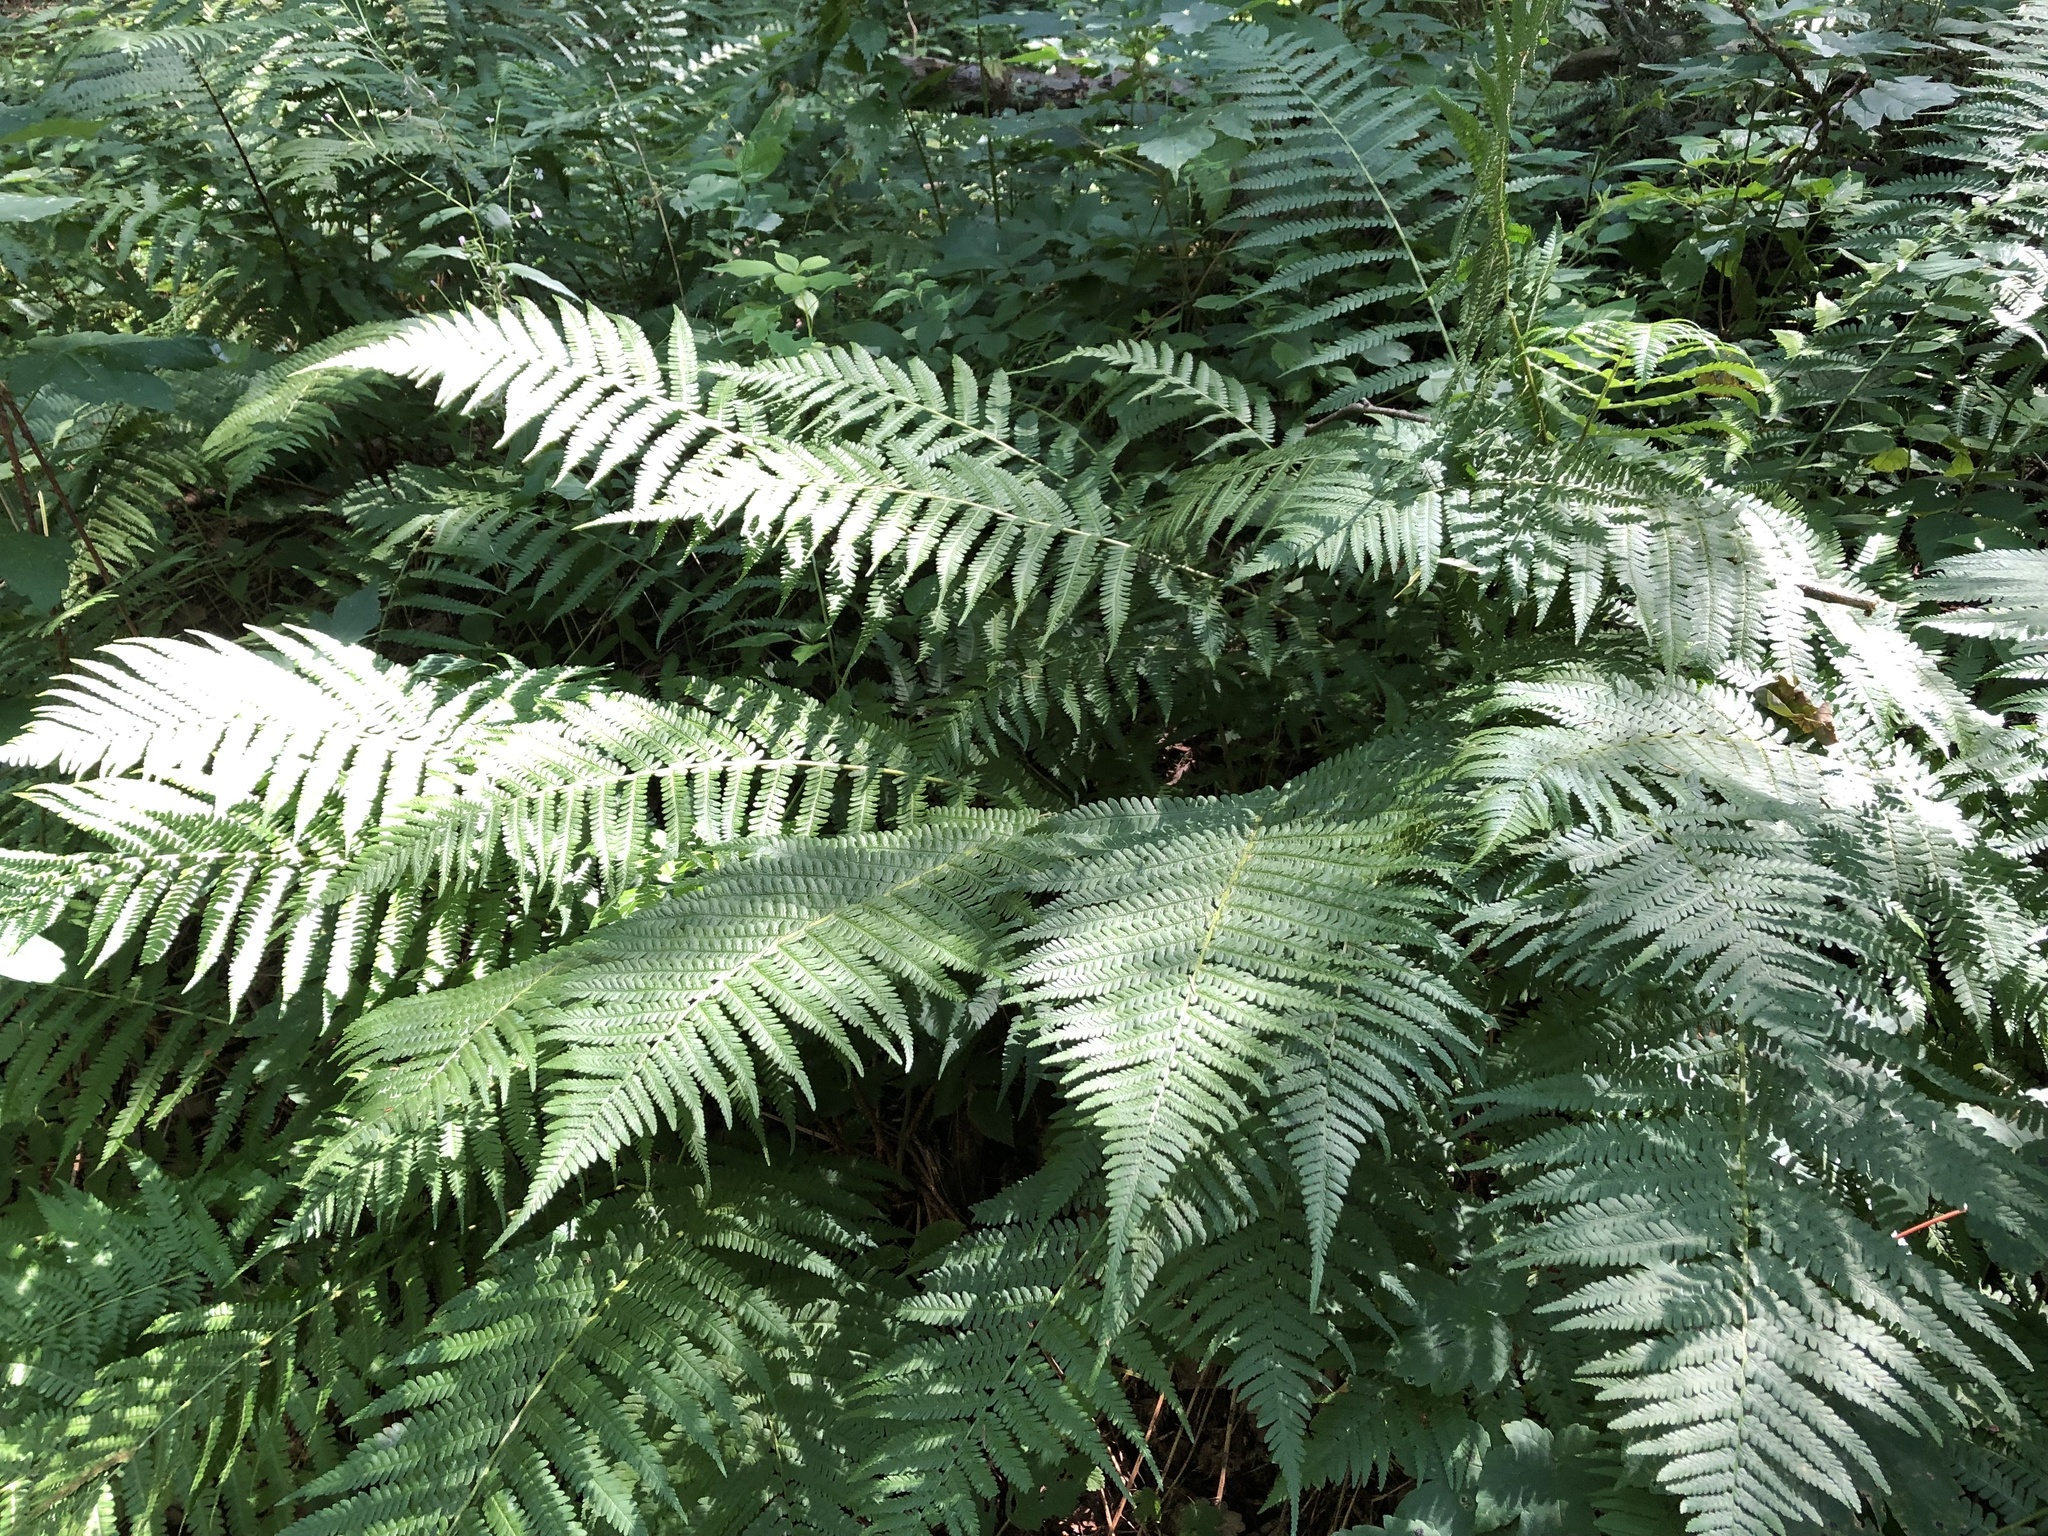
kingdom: Plantae
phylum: Tracheophyta
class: Polypodiopsida
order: Polypodiales
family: Dryopteridaceae
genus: Dryopteris
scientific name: Dryopteris filix-mas
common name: Male fern
